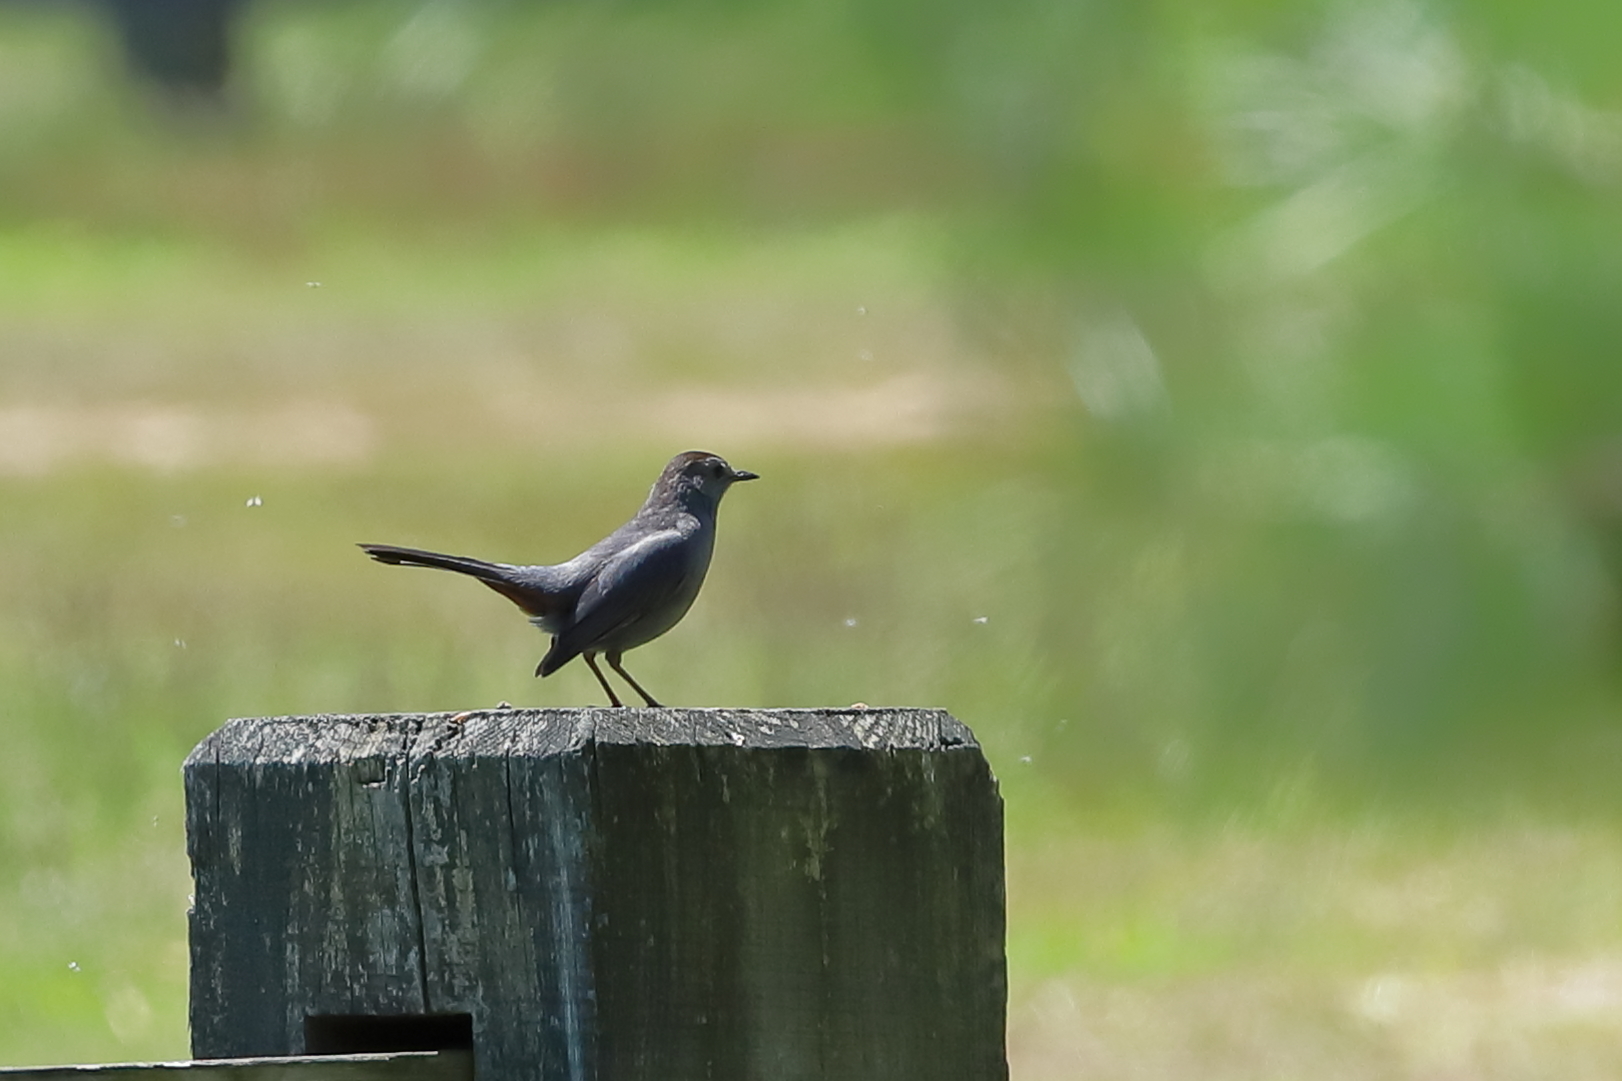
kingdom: Animalia
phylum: Chordata
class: Aves
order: Passeriformes
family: Mimidae
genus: Dumetella
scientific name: Dumetella carolinensis
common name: Gray catbird
